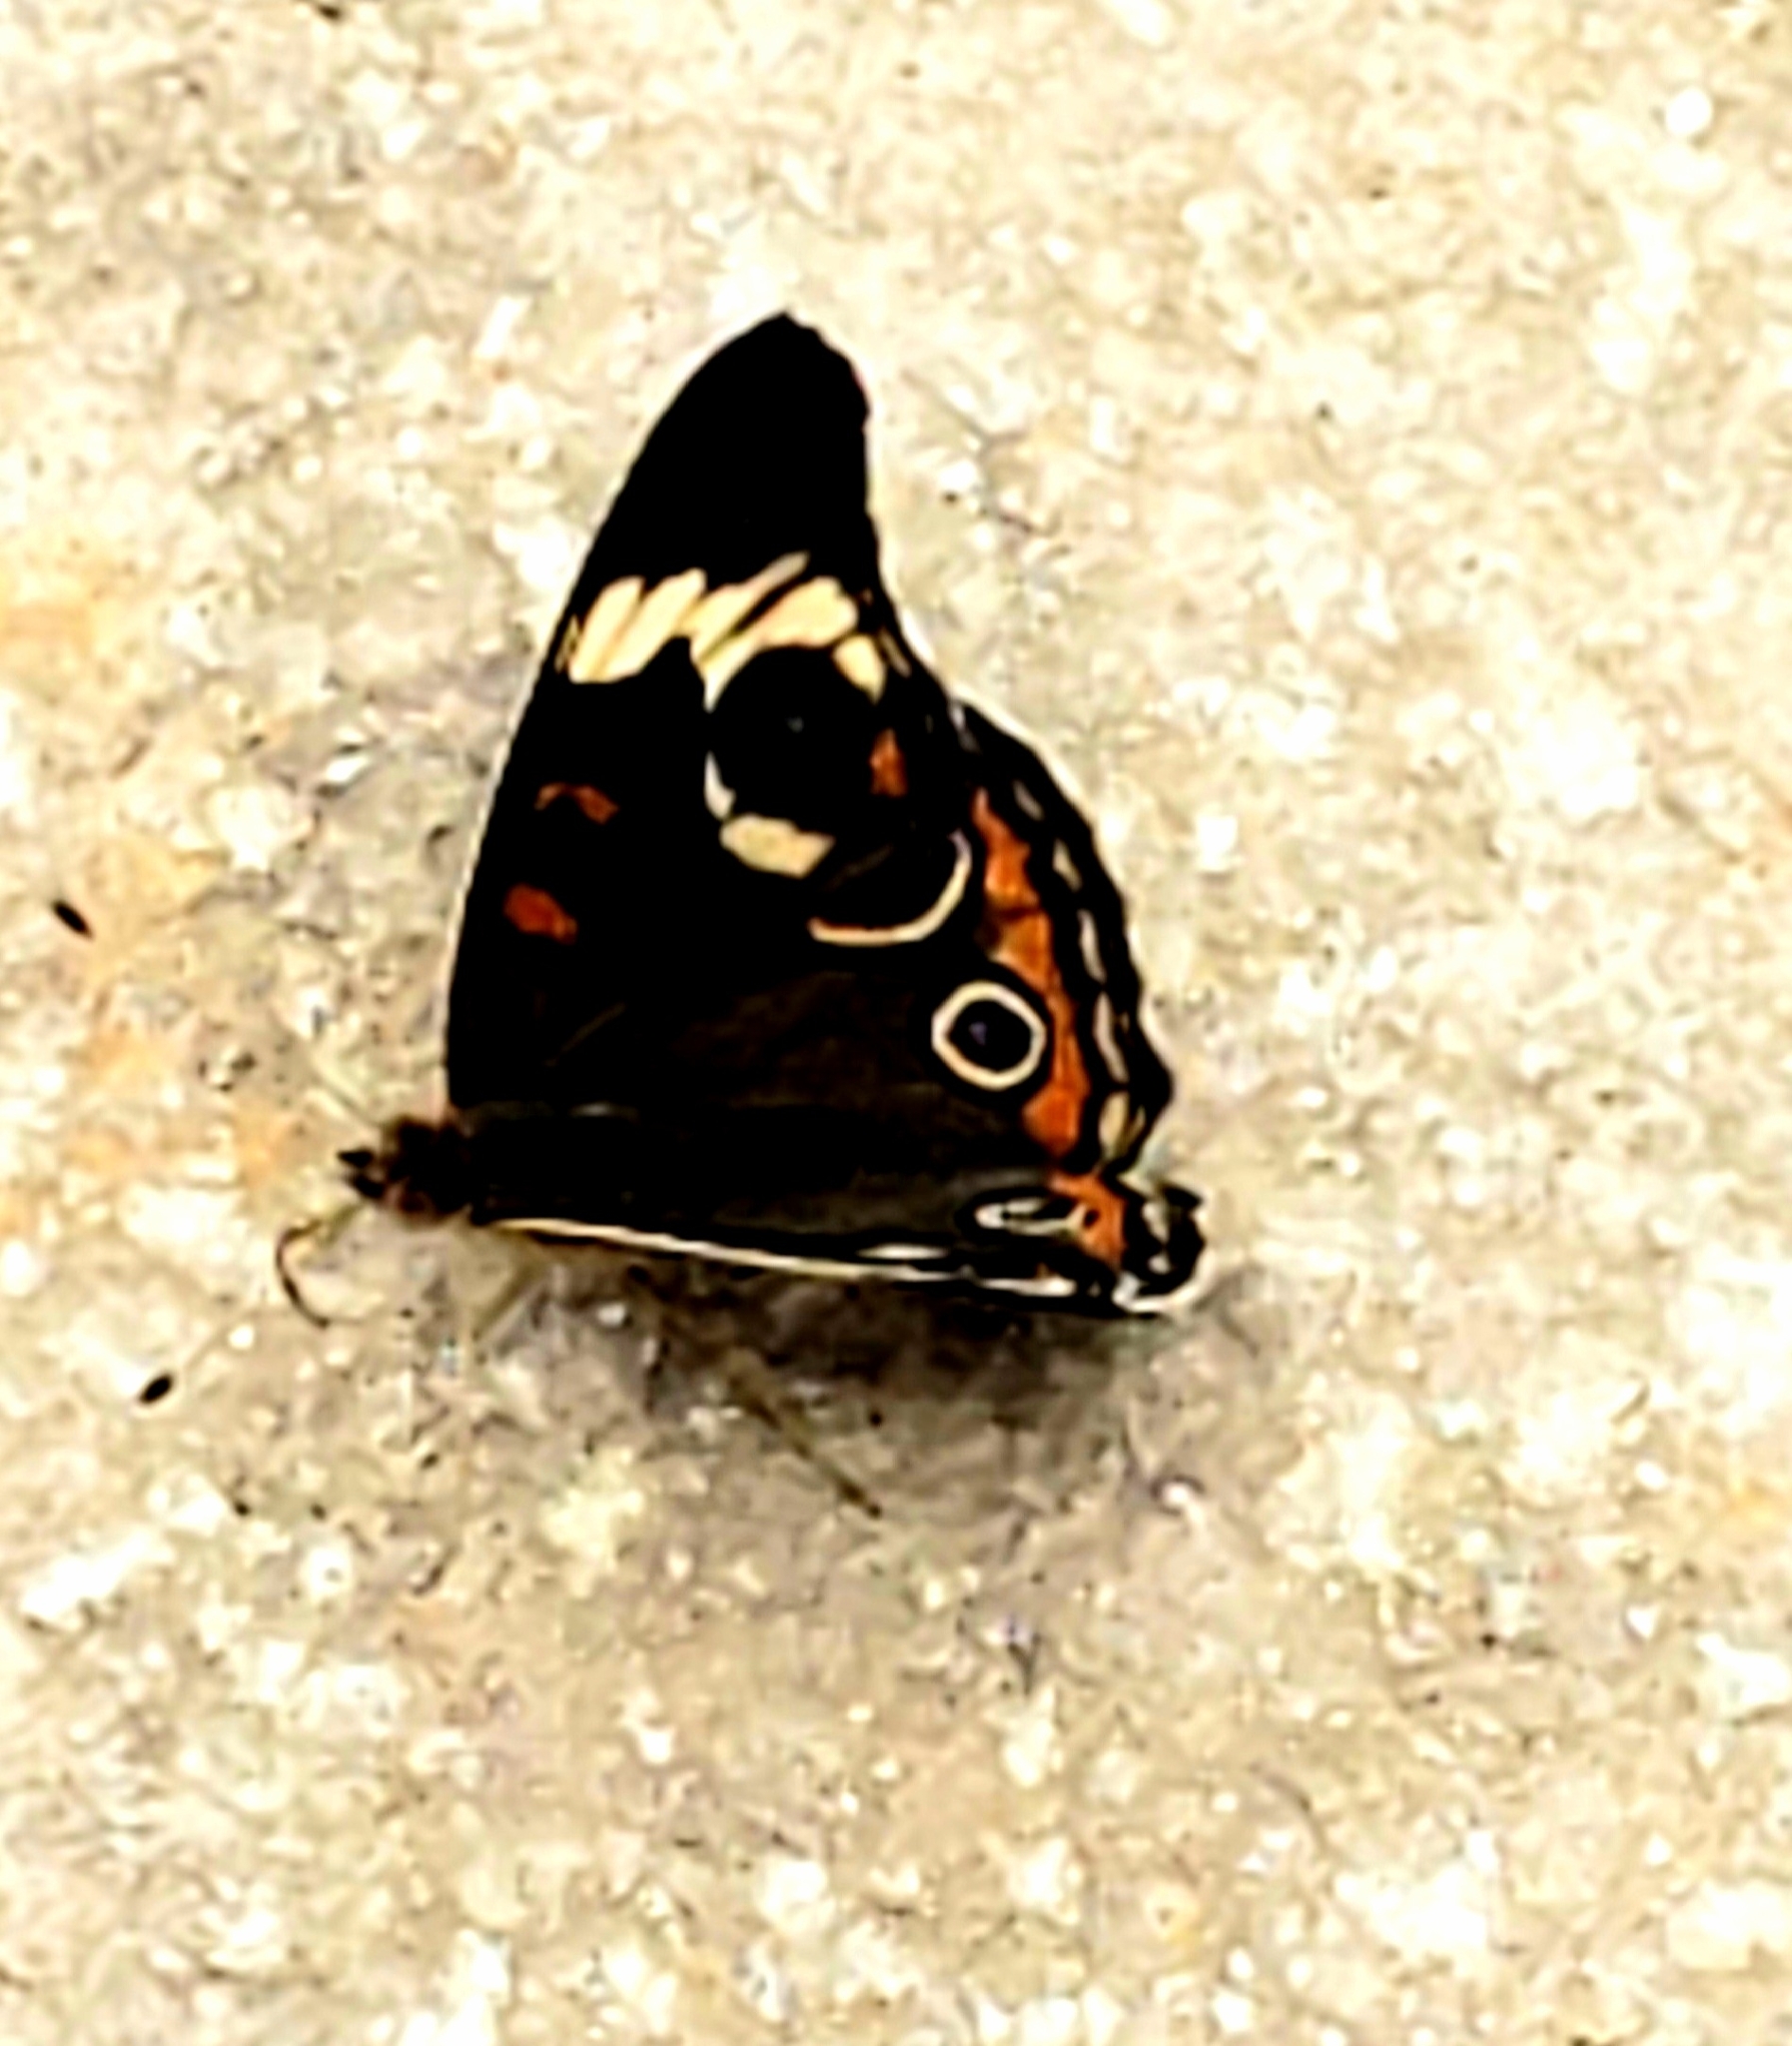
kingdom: Animalia
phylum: Arthropoda
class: Insecta
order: Lepidoptera
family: Nymphalidae
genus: Junonia
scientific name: Junonia coenia
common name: Common buckeye
